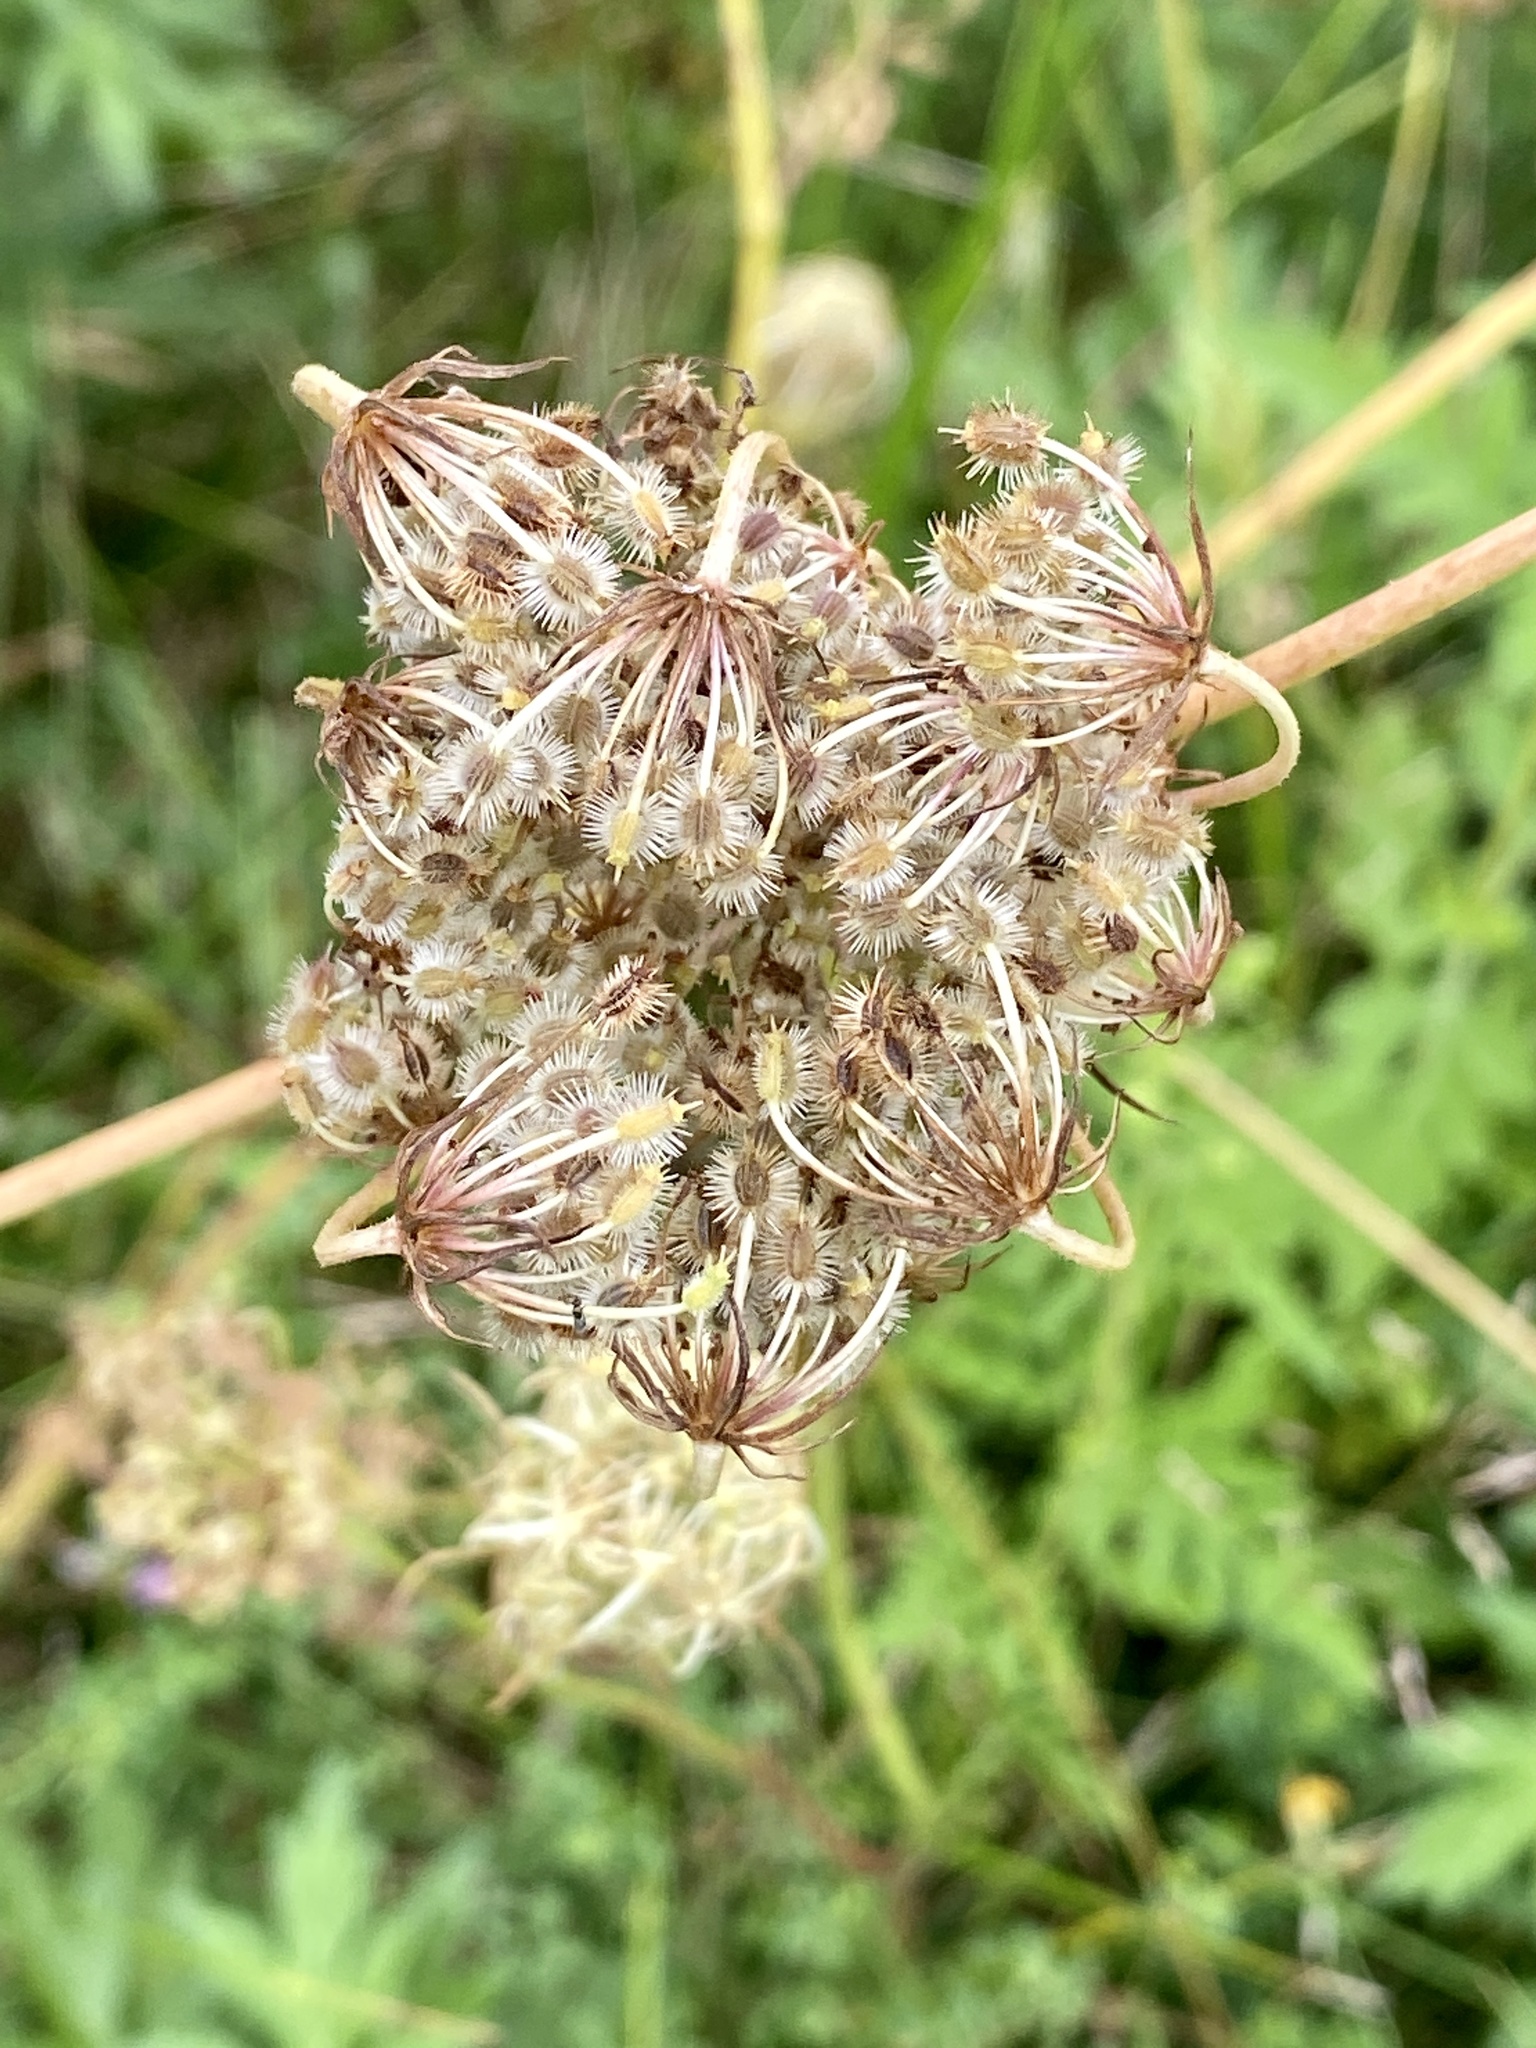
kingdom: Plantae
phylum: Tracheophyta
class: Magnoliopsida
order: Apiales
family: Apiaceae
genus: Daucus
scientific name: Daucus carota
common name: Wild carrot
